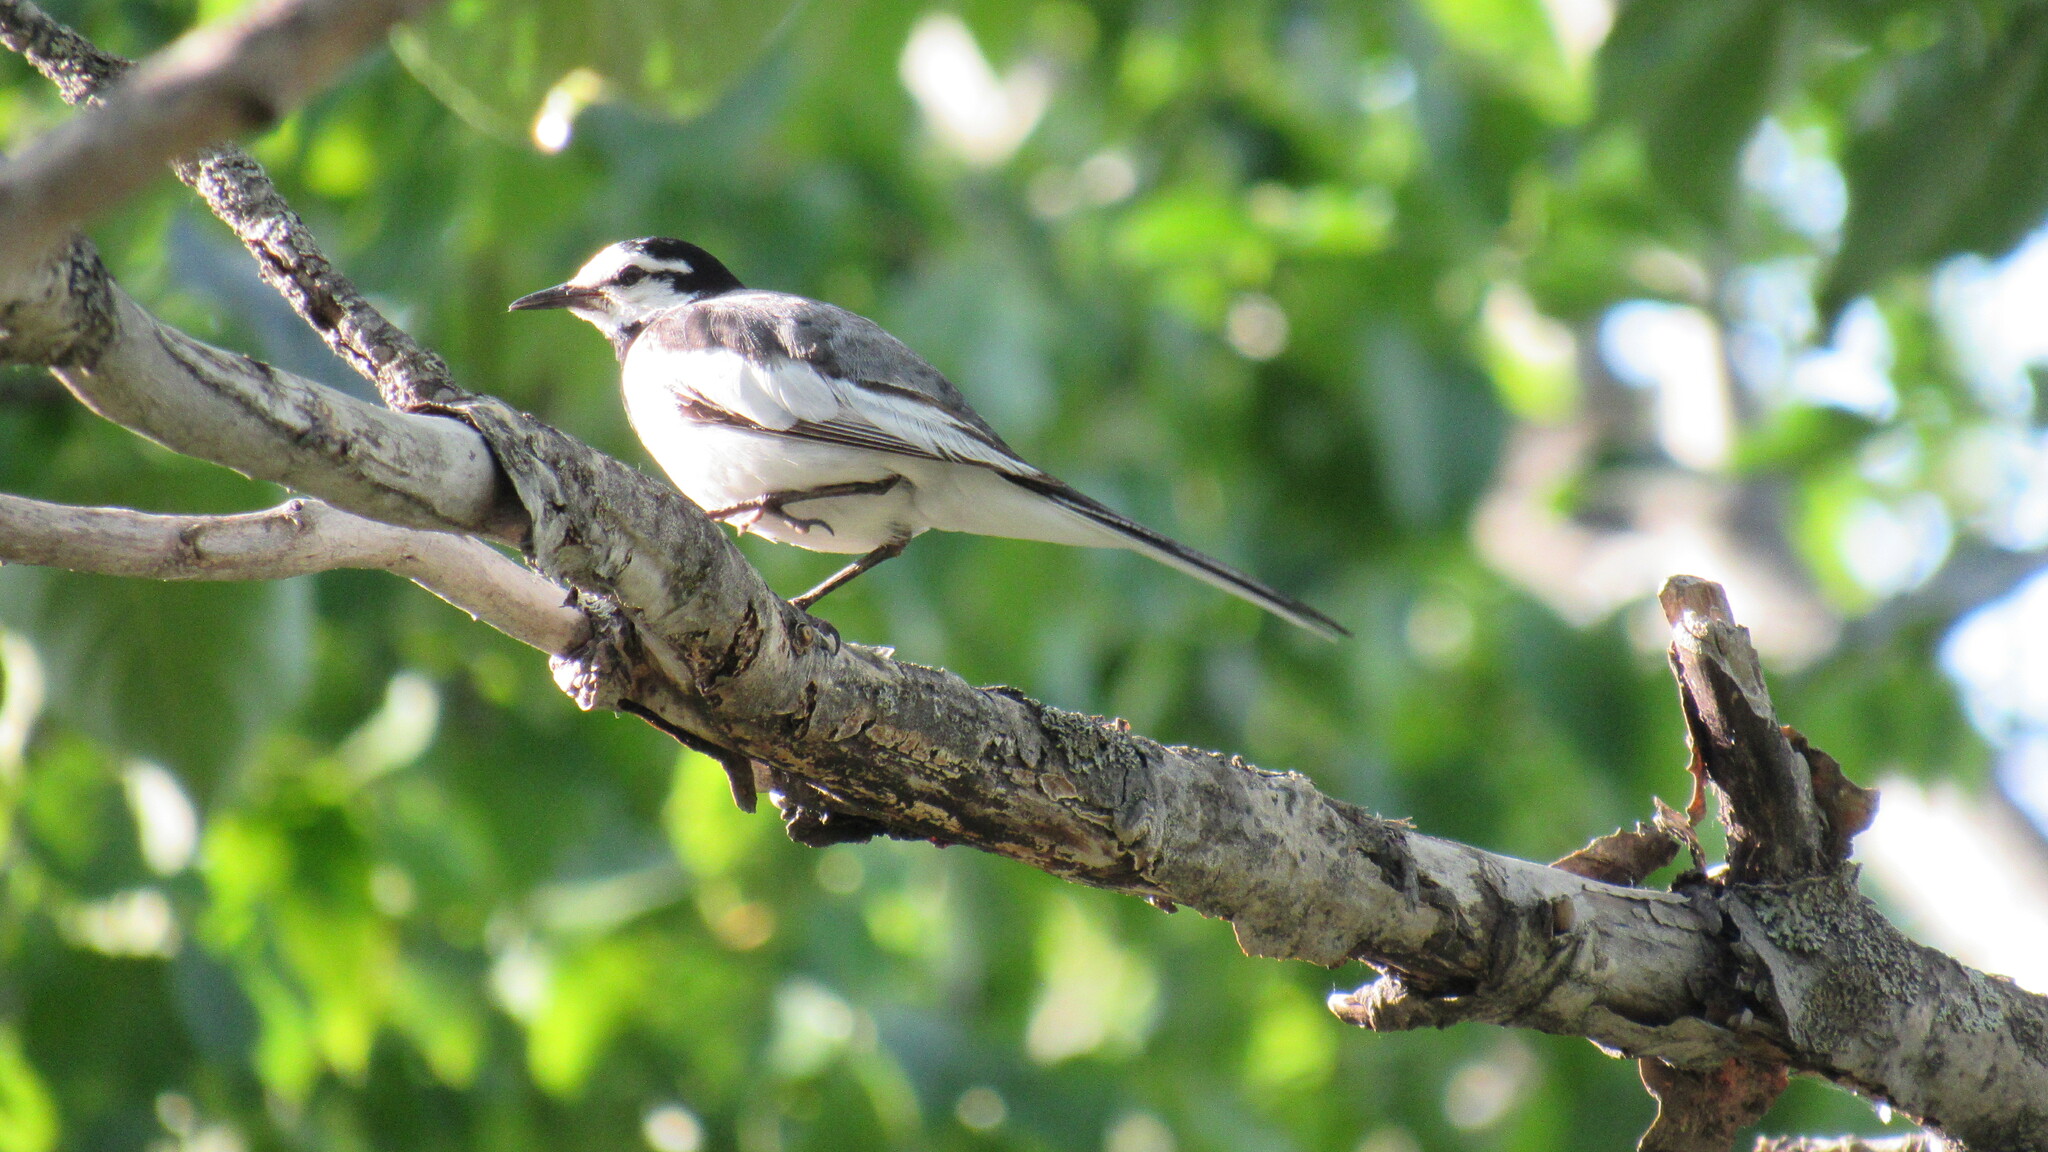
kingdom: Animalia
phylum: Chordata
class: Aves
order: Passeriformes
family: Motacillidae
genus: Motacilla
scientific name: Motacilla alba
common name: White wagtail
